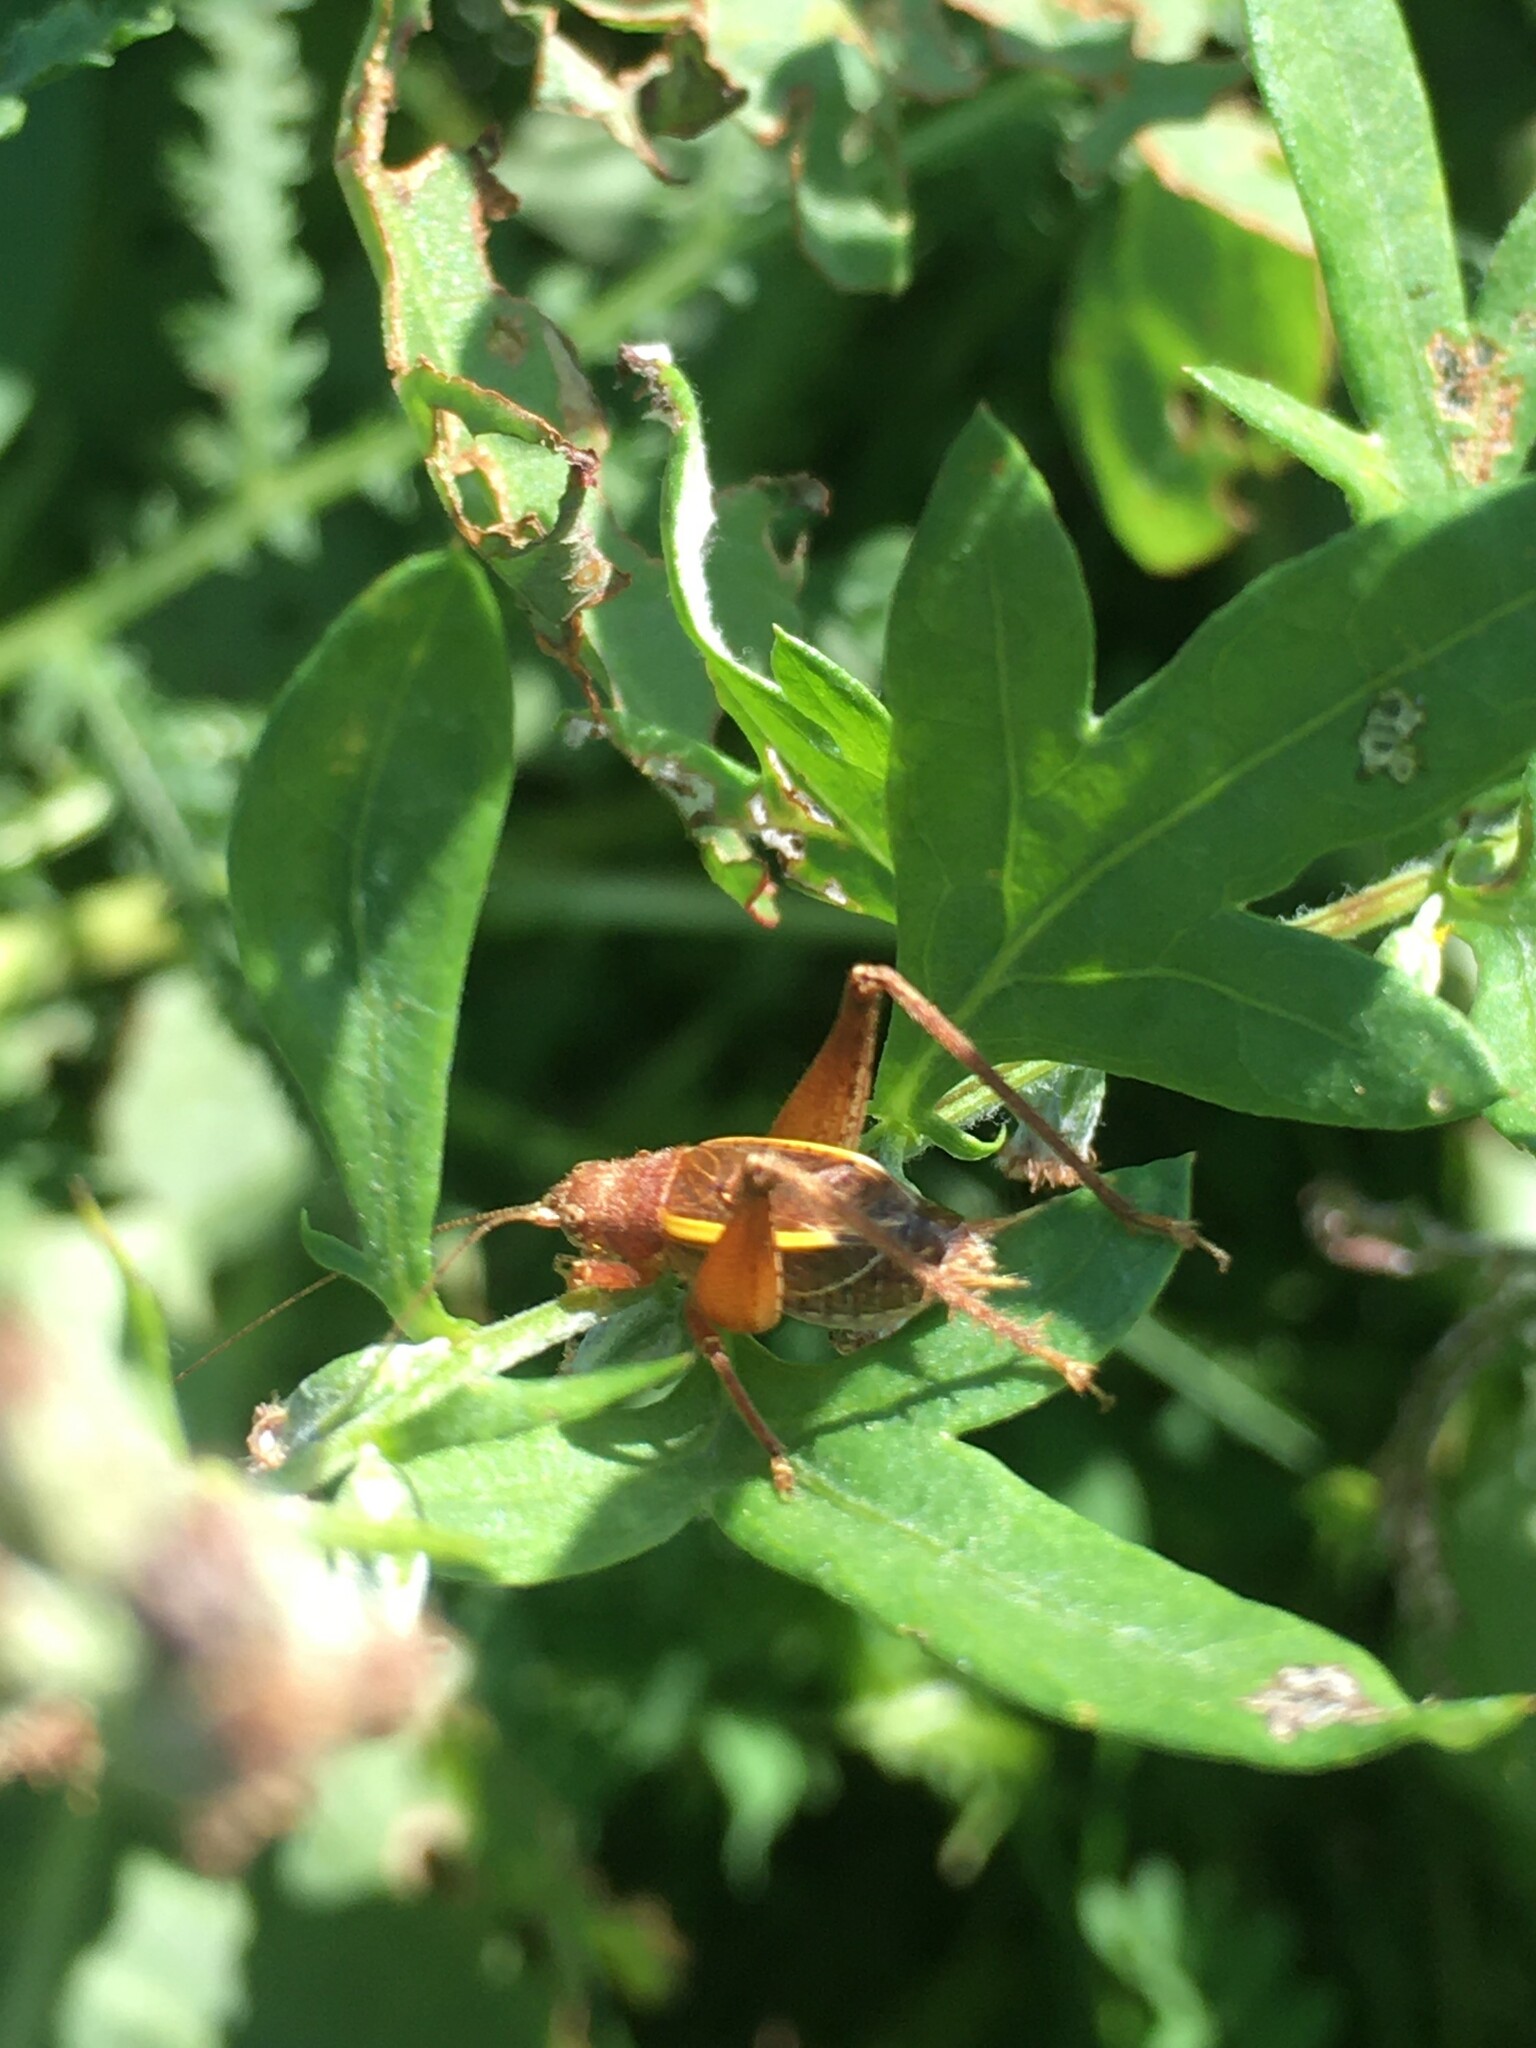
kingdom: Animalia
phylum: Arthropoda
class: Insecta
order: Orthoptera
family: Gryllidae
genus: Hapithus
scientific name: Hapithus agitator
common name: Restless bush cricket
